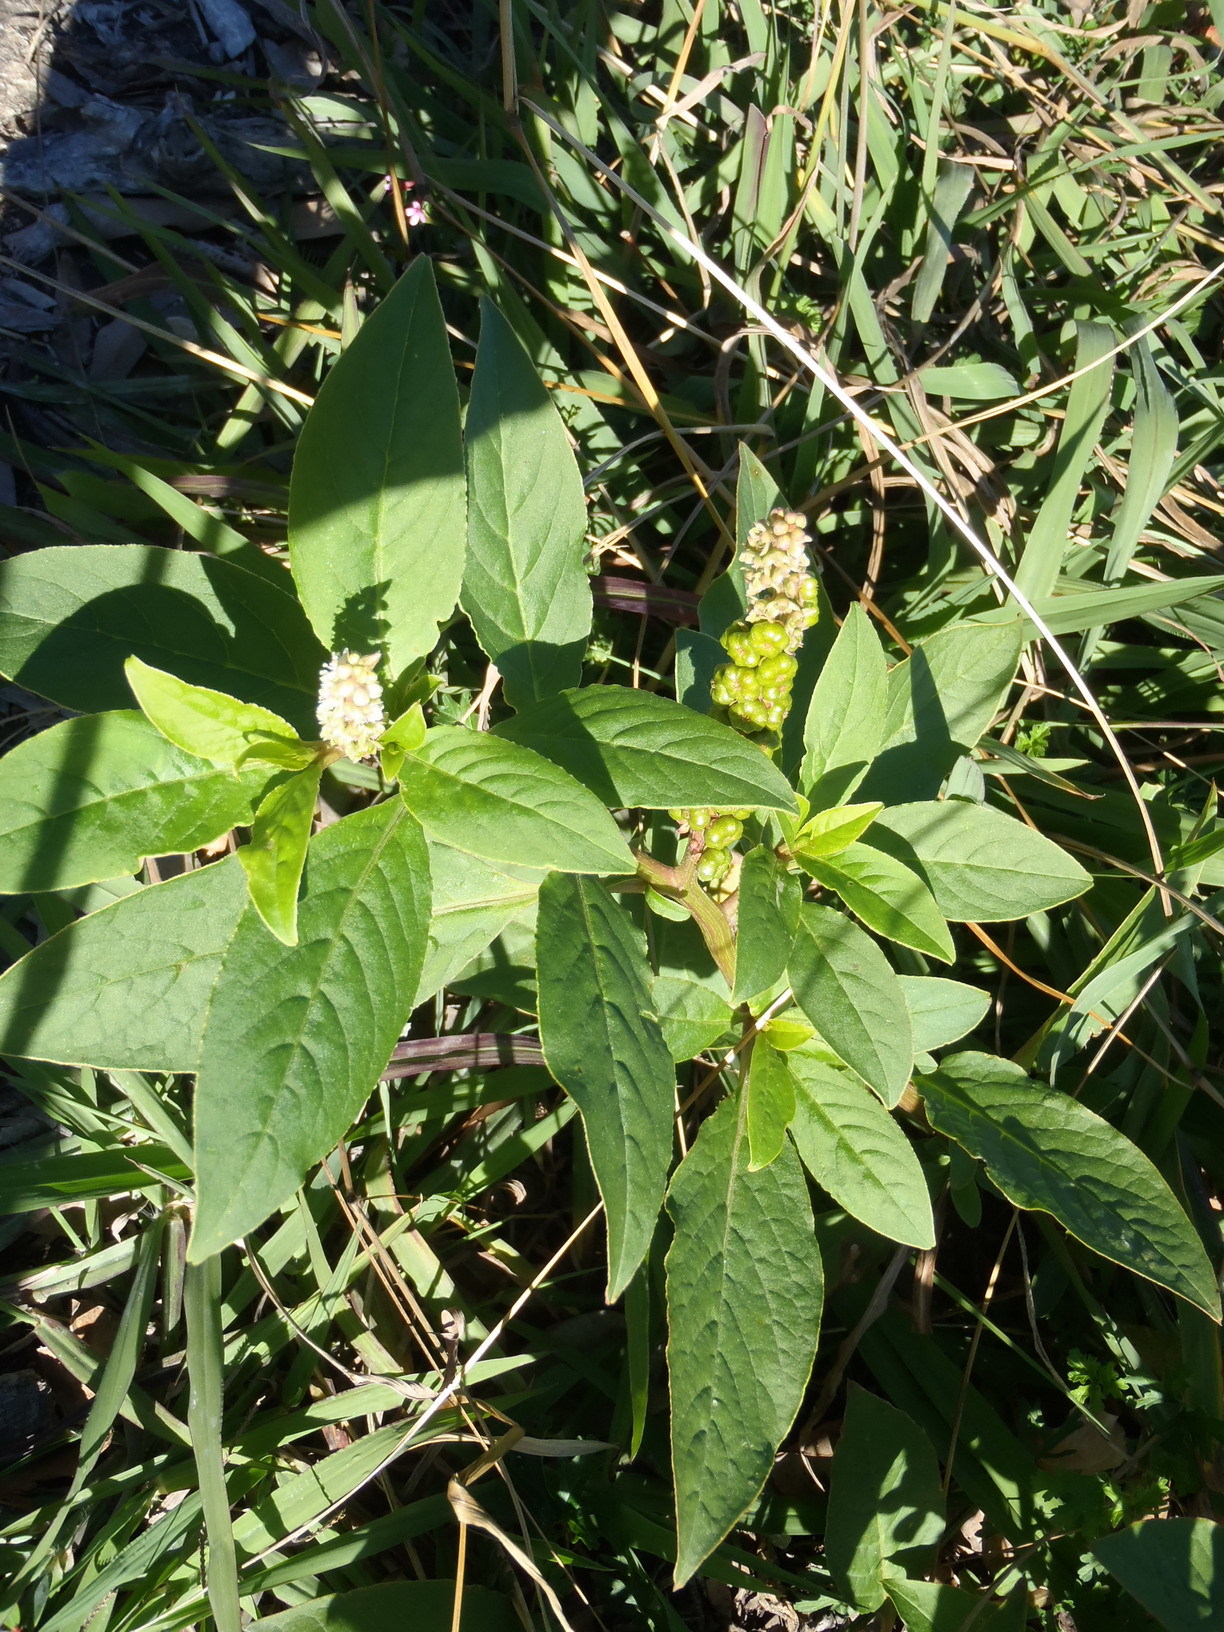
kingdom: Plantae
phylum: Tracheophyta
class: Magnoliopsida
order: Caryophyllales
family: Phytolaccaceae
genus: Phytolacca
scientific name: Phytolacca icosandra
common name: Button pokeweed
